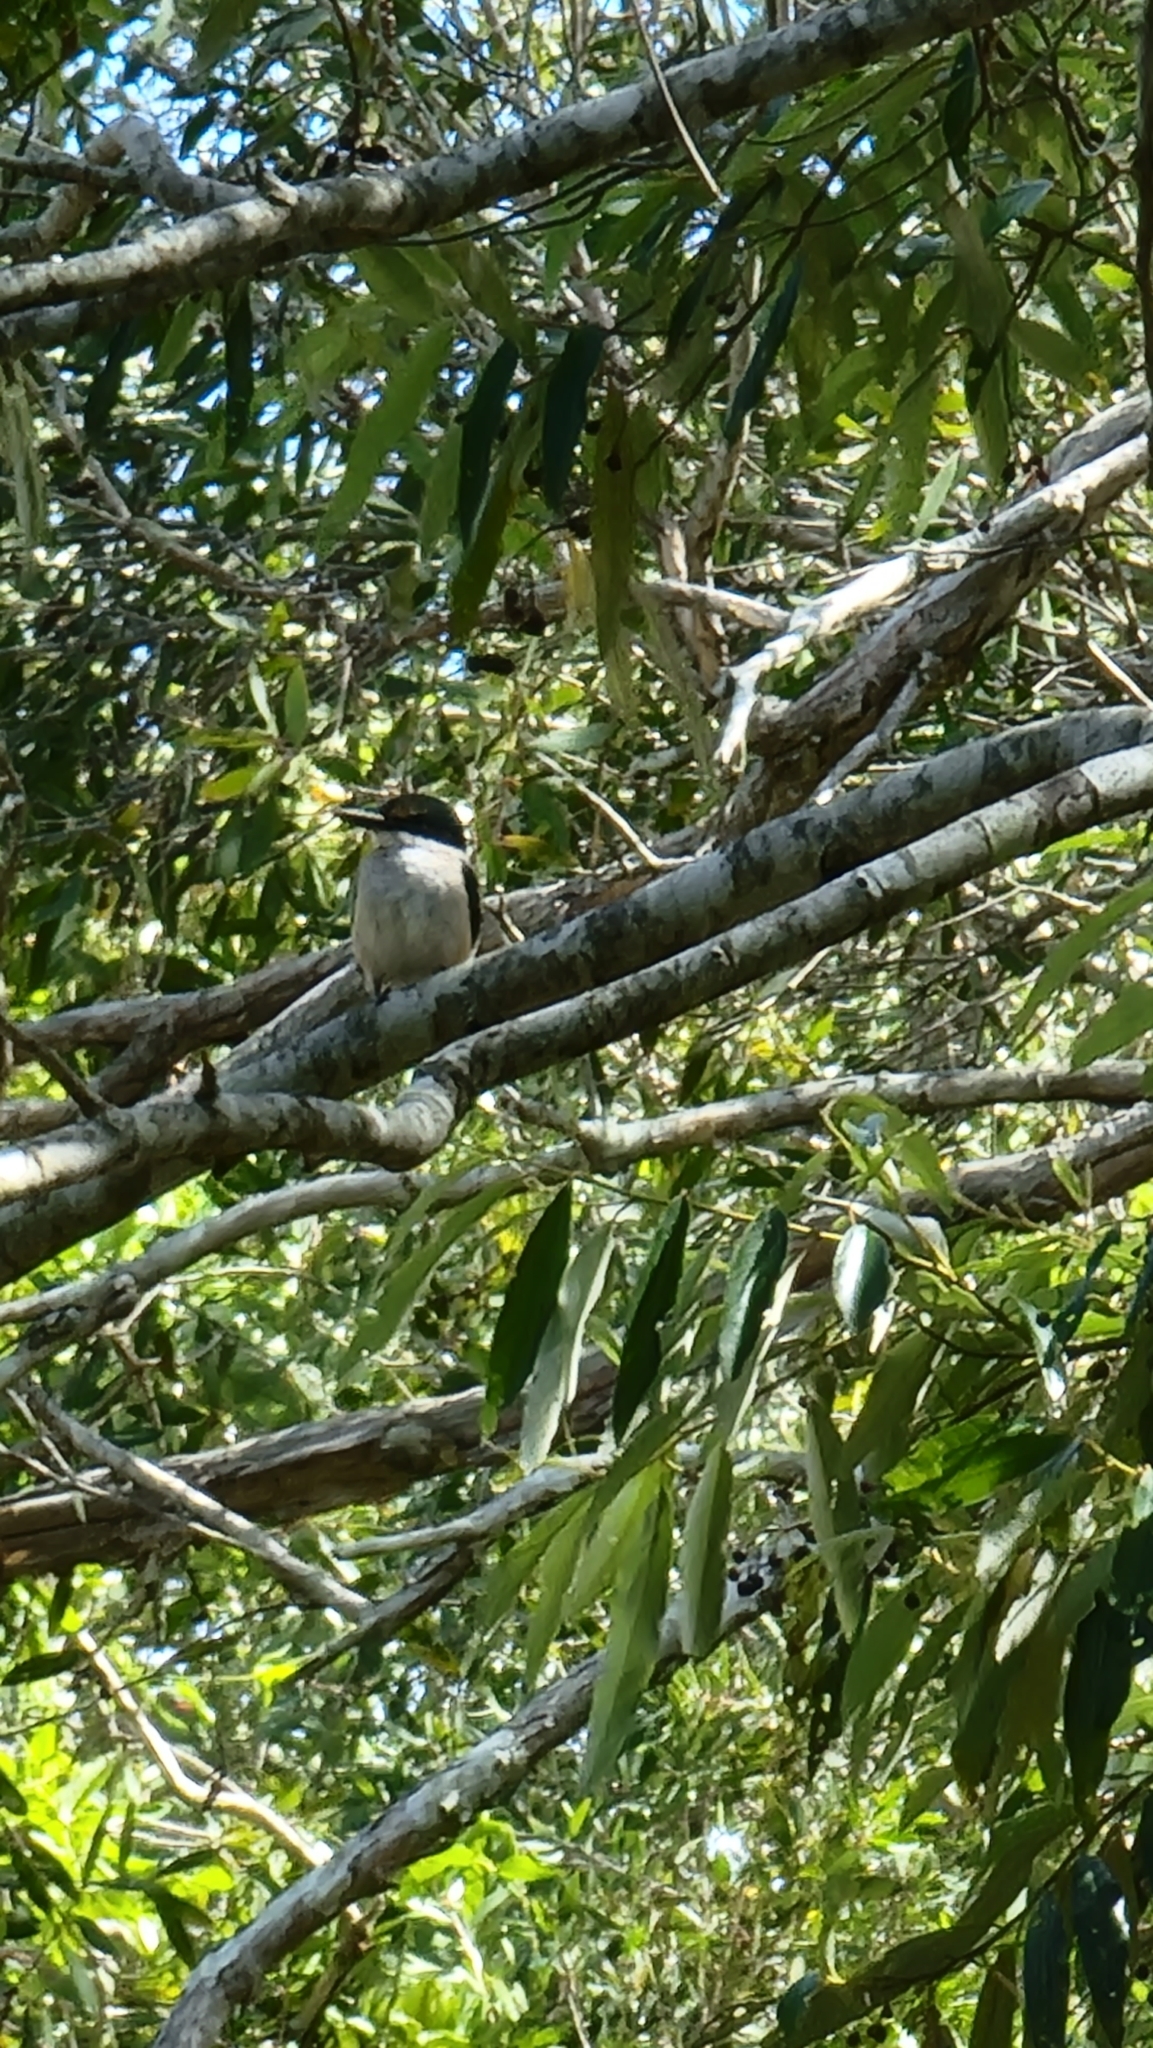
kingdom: Animalia
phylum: Chordata
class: Aves
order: Coraciiformes
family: Alcedinidae
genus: Todiramphus
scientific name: Todiramphus sanctus
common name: Sacred kingfisher
